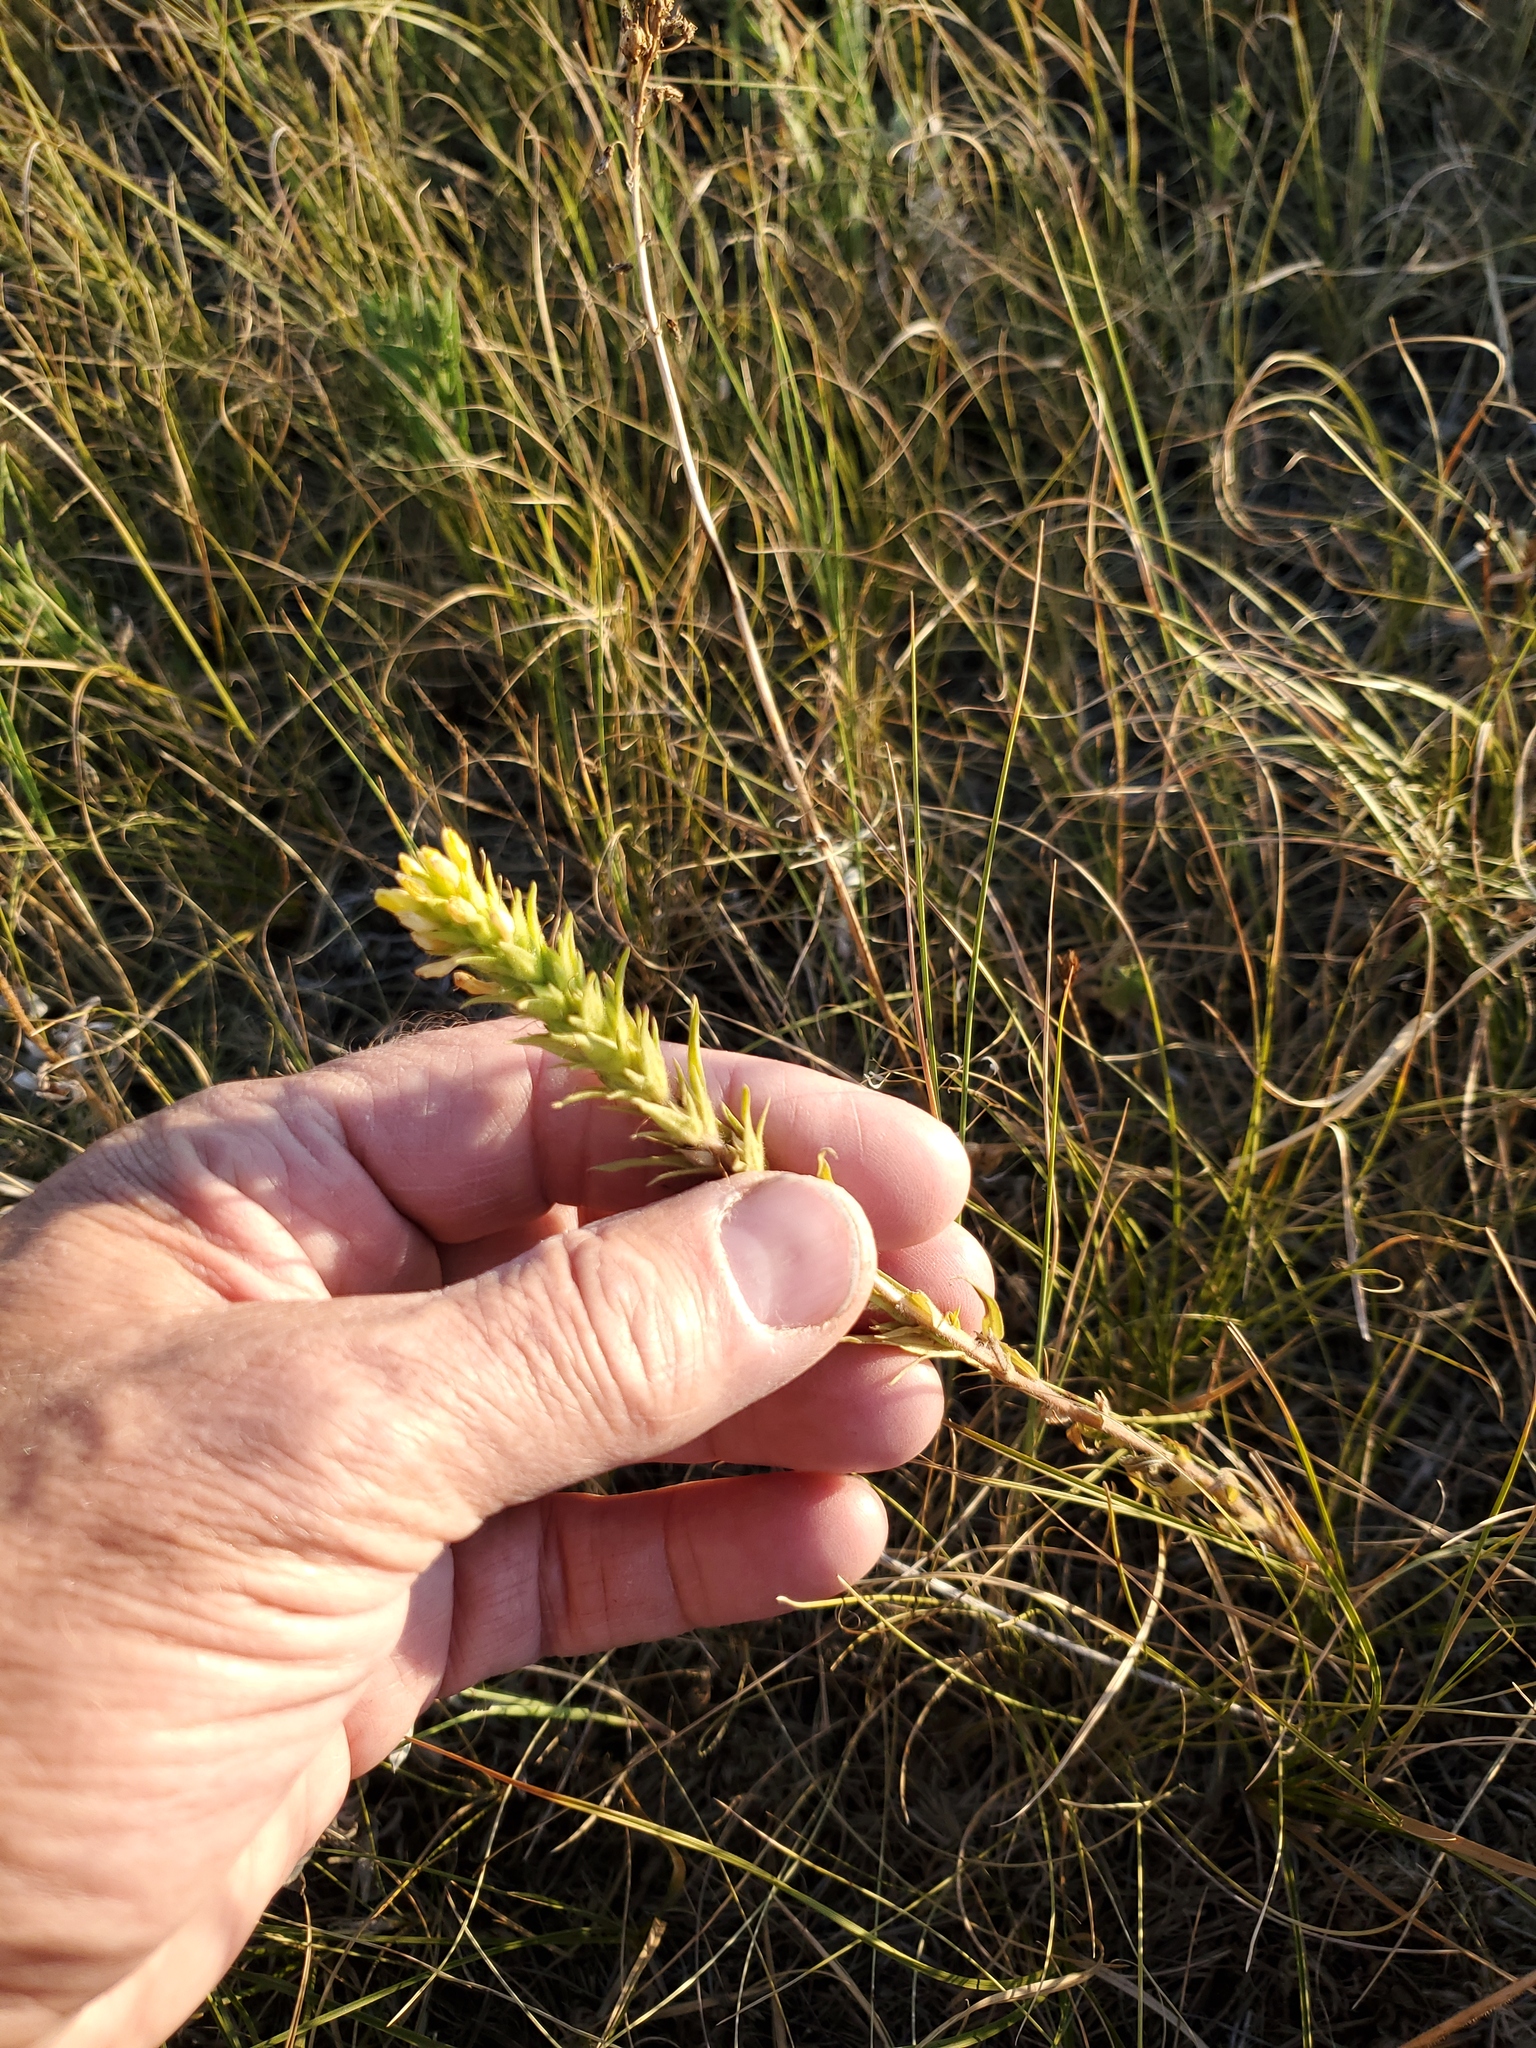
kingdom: Plantae
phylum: Tracheophyta
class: Magnoliopsida
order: Lamiales
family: Orobanchaceae
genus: Orthocarpus
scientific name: Orthocarpus luteus
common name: Golden-tongue owl's-clover
